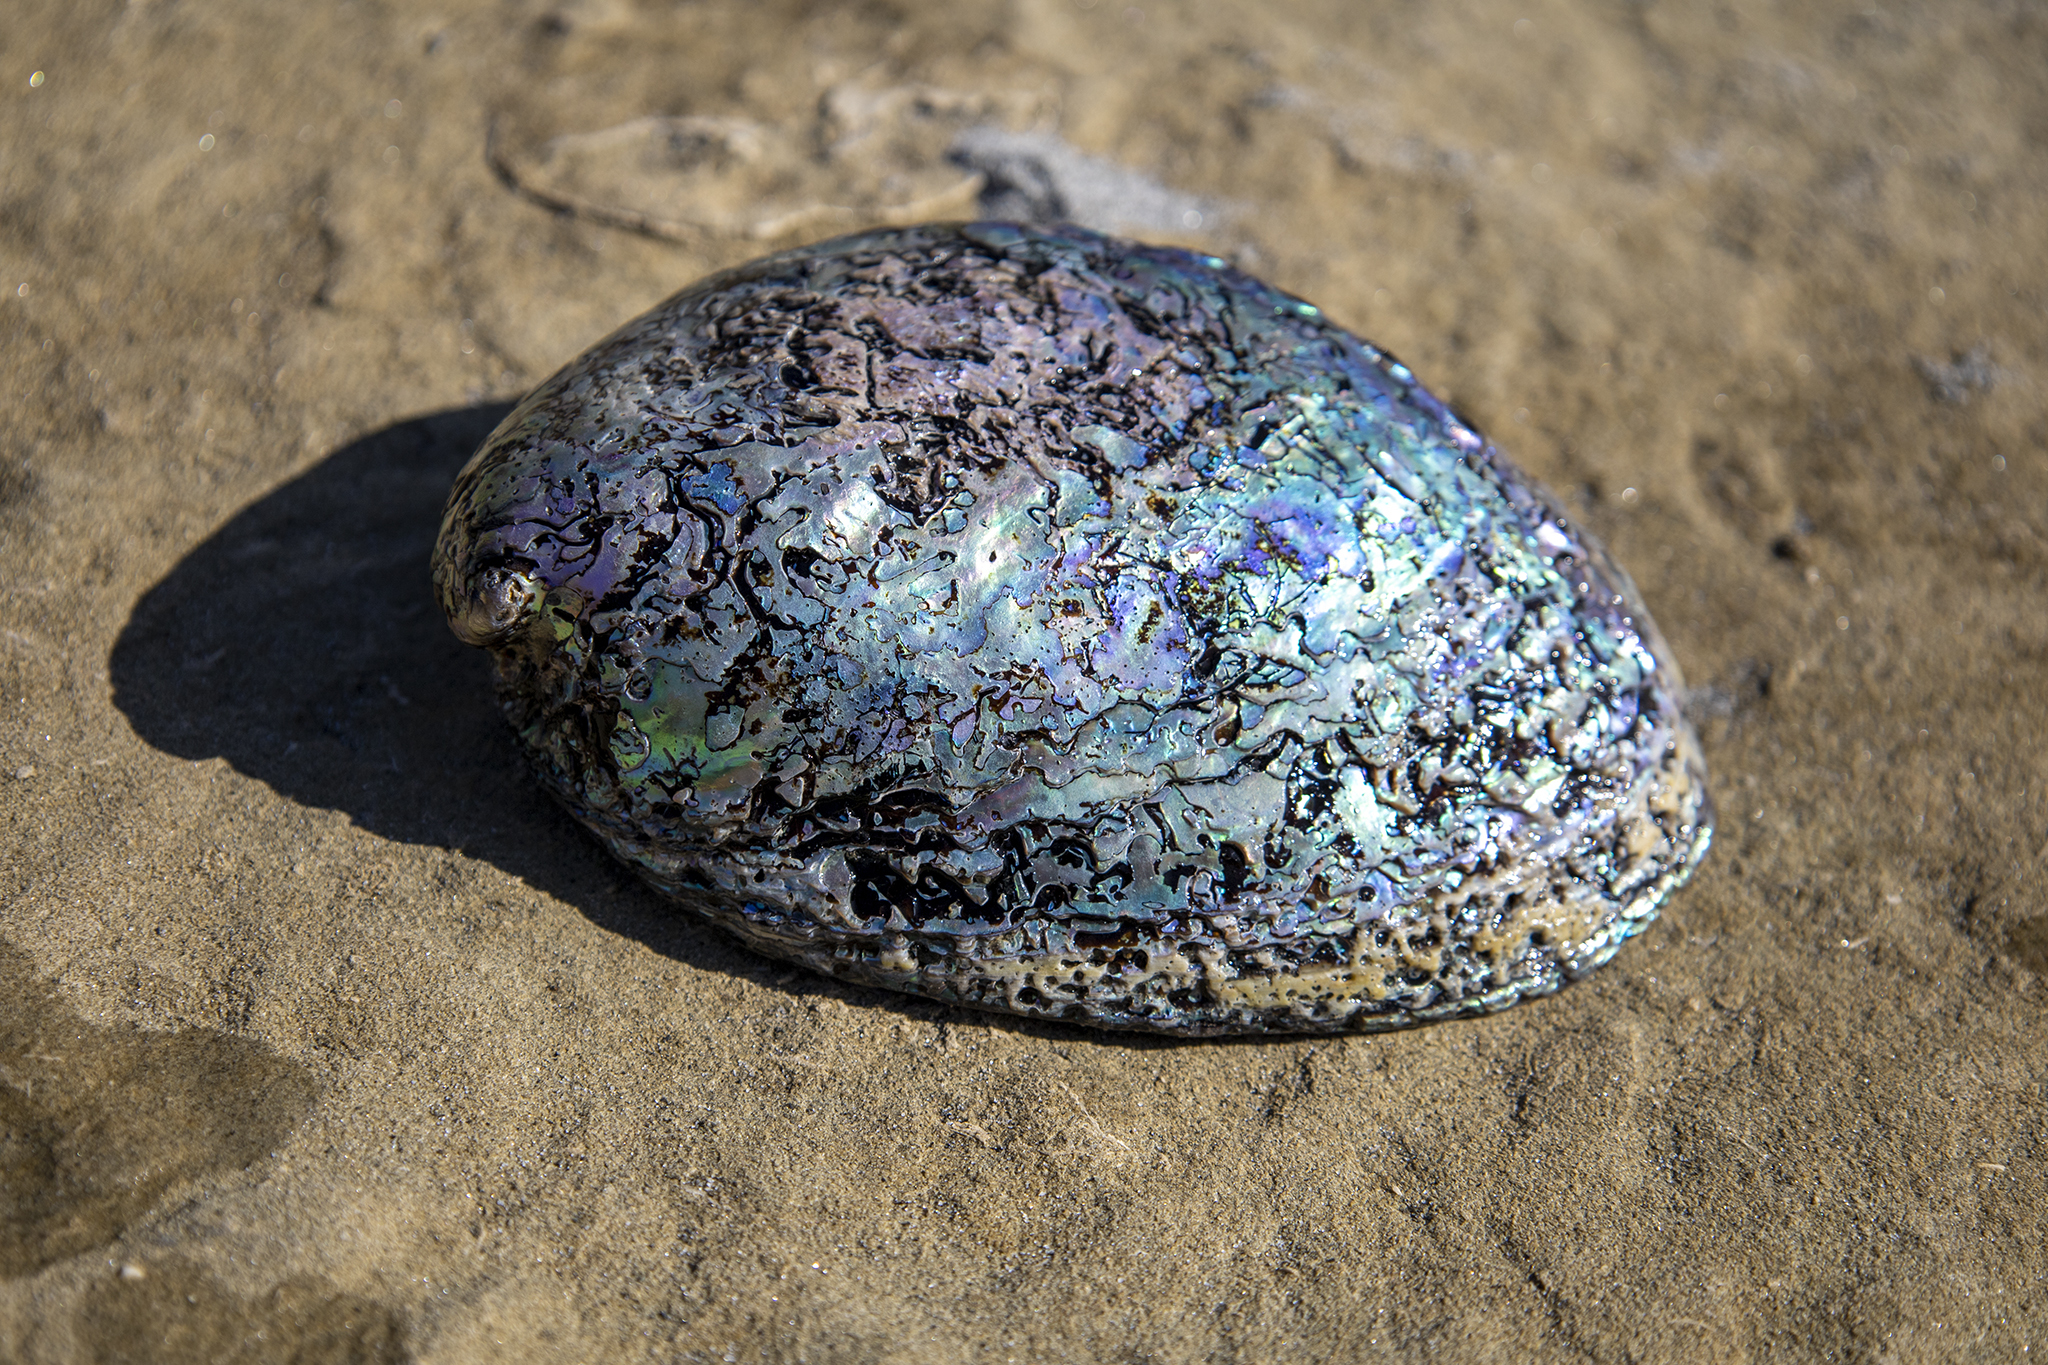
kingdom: Animalia
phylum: Mollusca
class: Gastropoda
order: Lepetellida
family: Haliotidae
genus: Haliotis
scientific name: Haliotis iris
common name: Abalone
